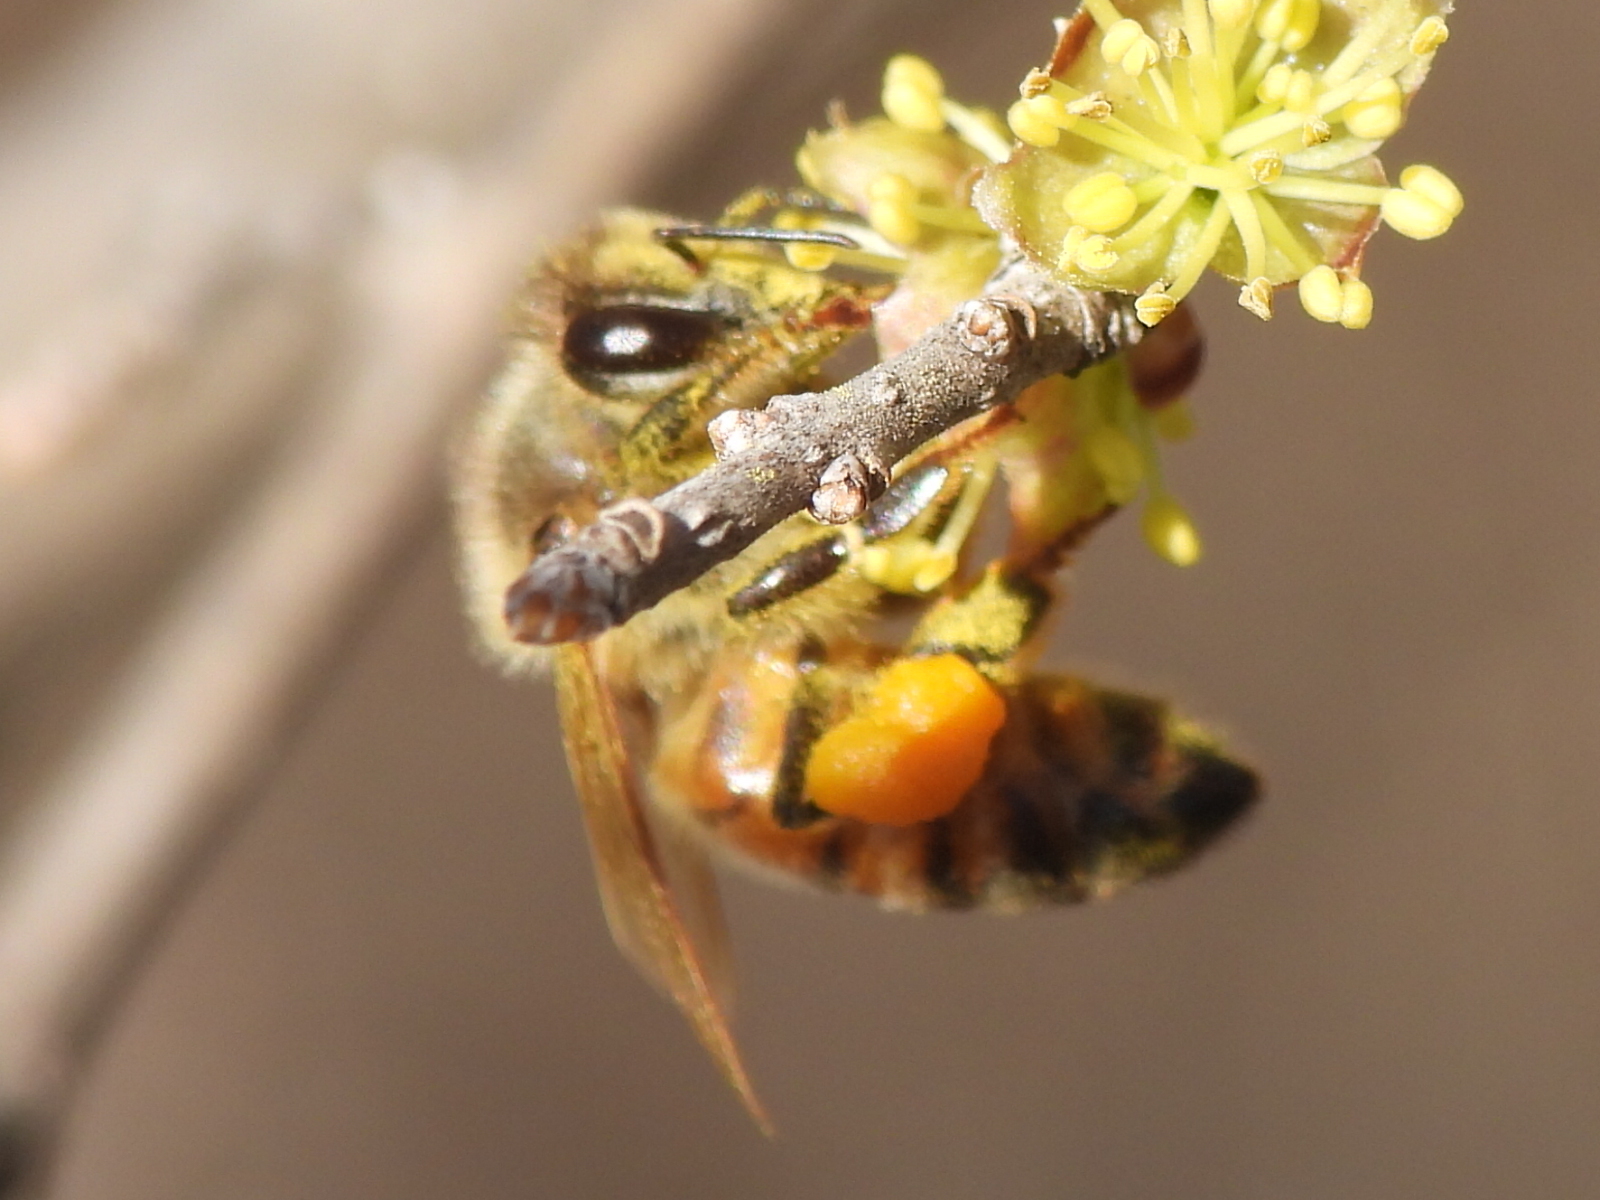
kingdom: Animalia
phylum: Arthropoda
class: Insecta
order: Hymenoptera
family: Apidae
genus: Apis
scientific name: Apis mellifera
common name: Honey bee
